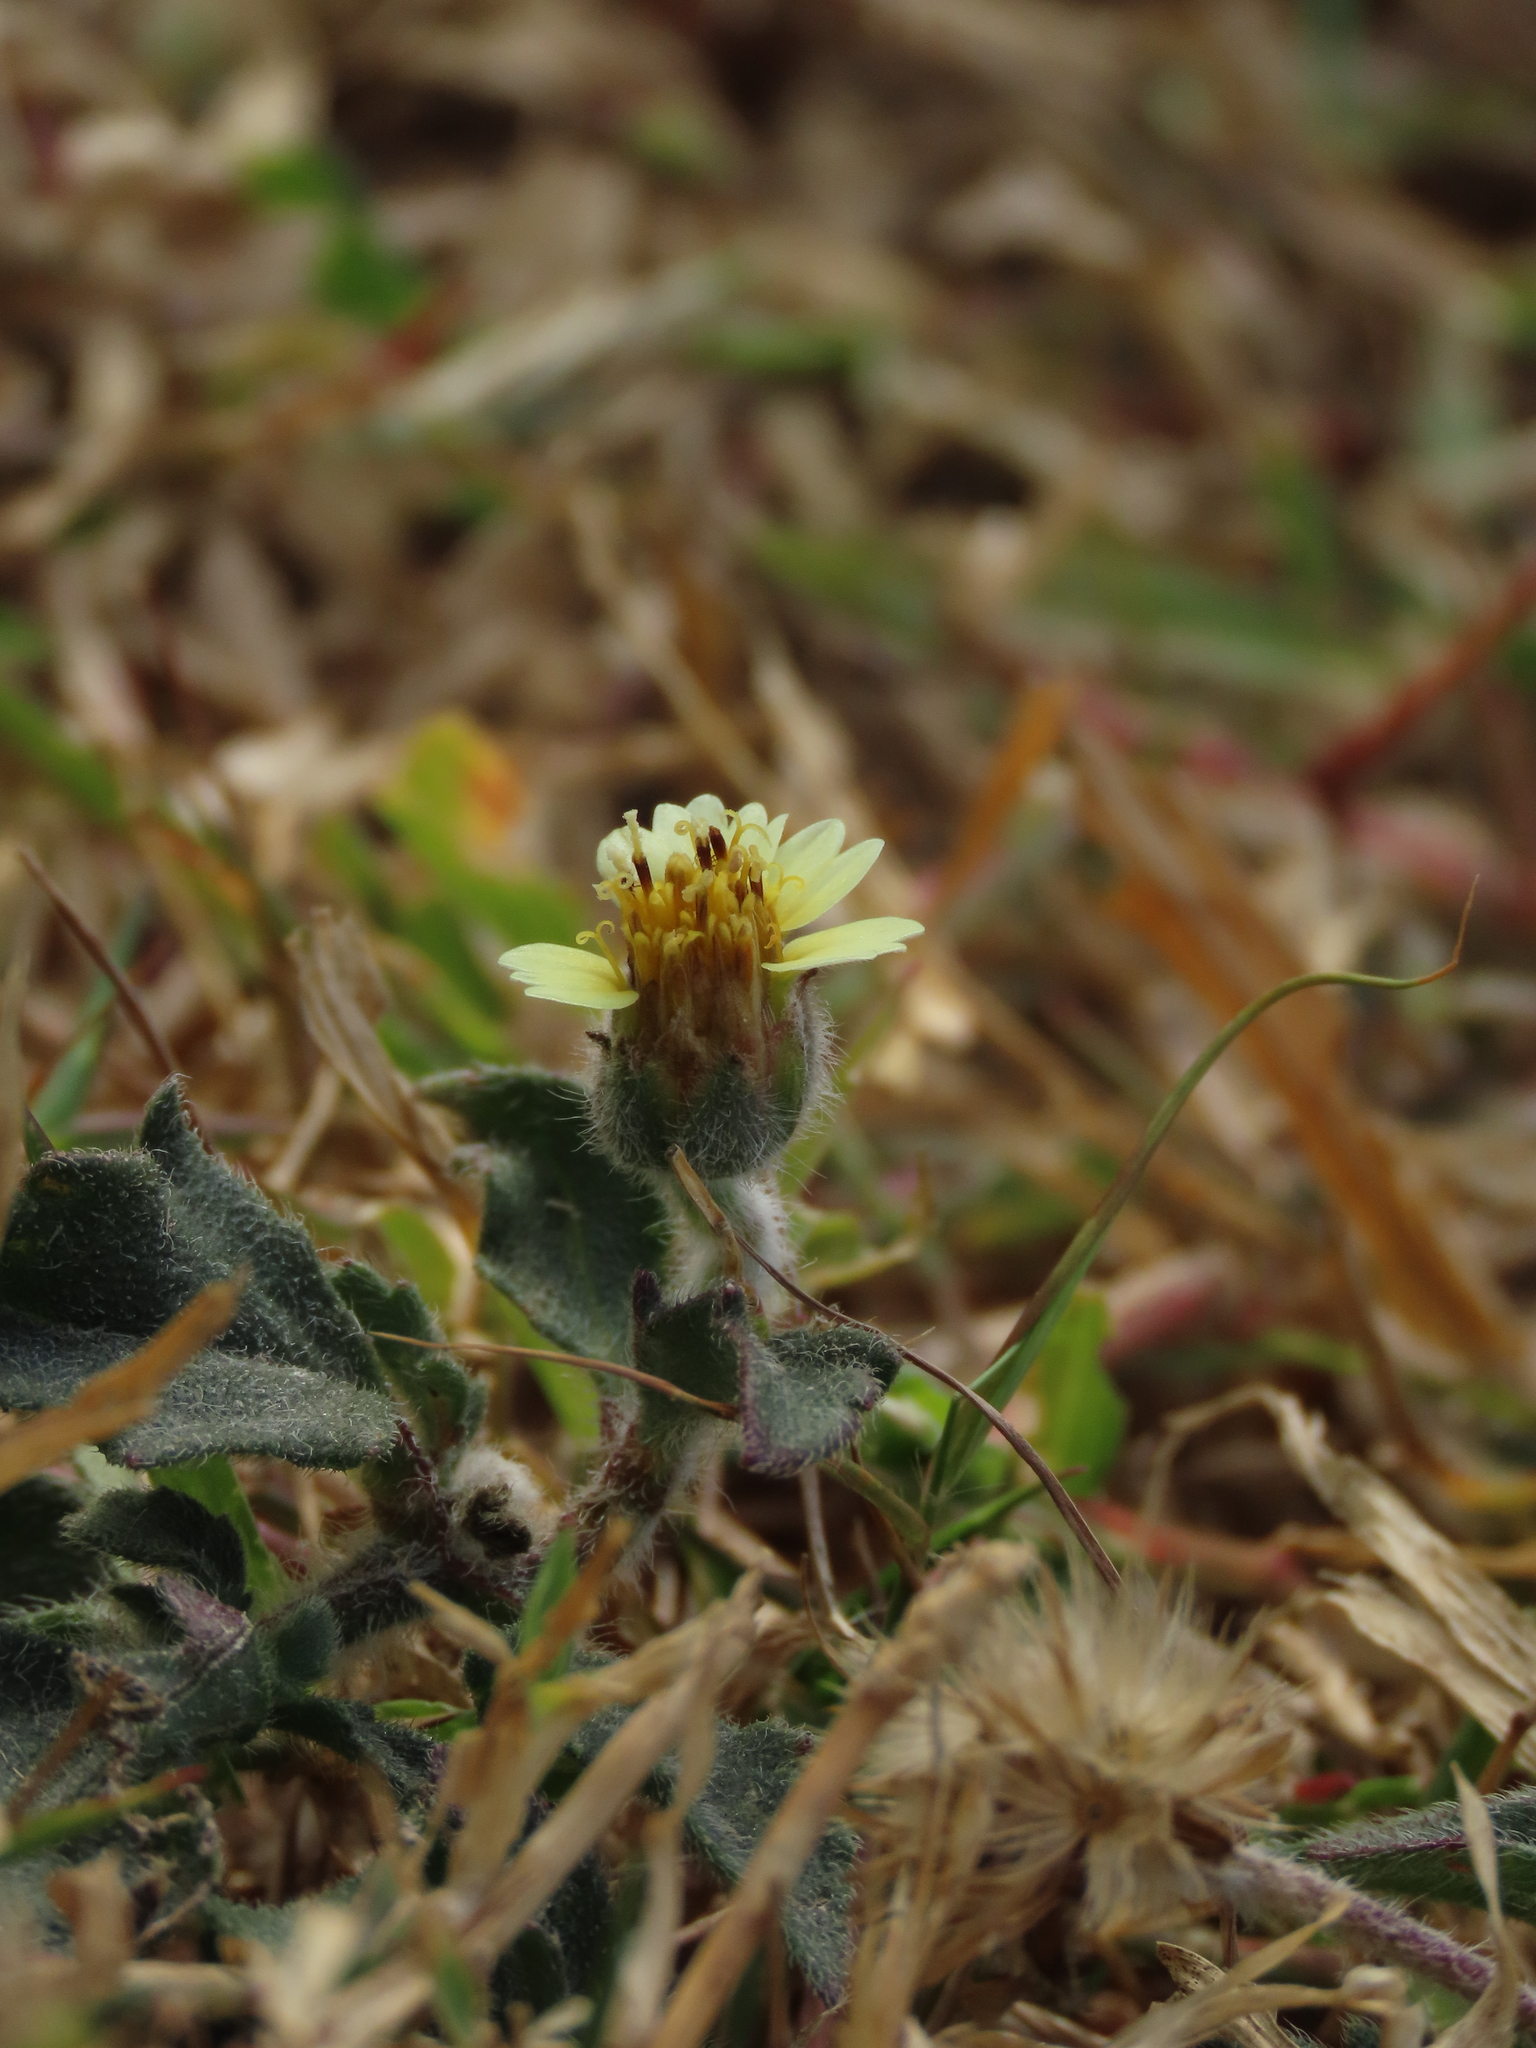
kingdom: Plantae
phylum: Tracheophyta
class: Magnoliopsida
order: Asterales
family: Asteraceae
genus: Tridax
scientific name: Tridax procumbens
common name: Coatbuttons
